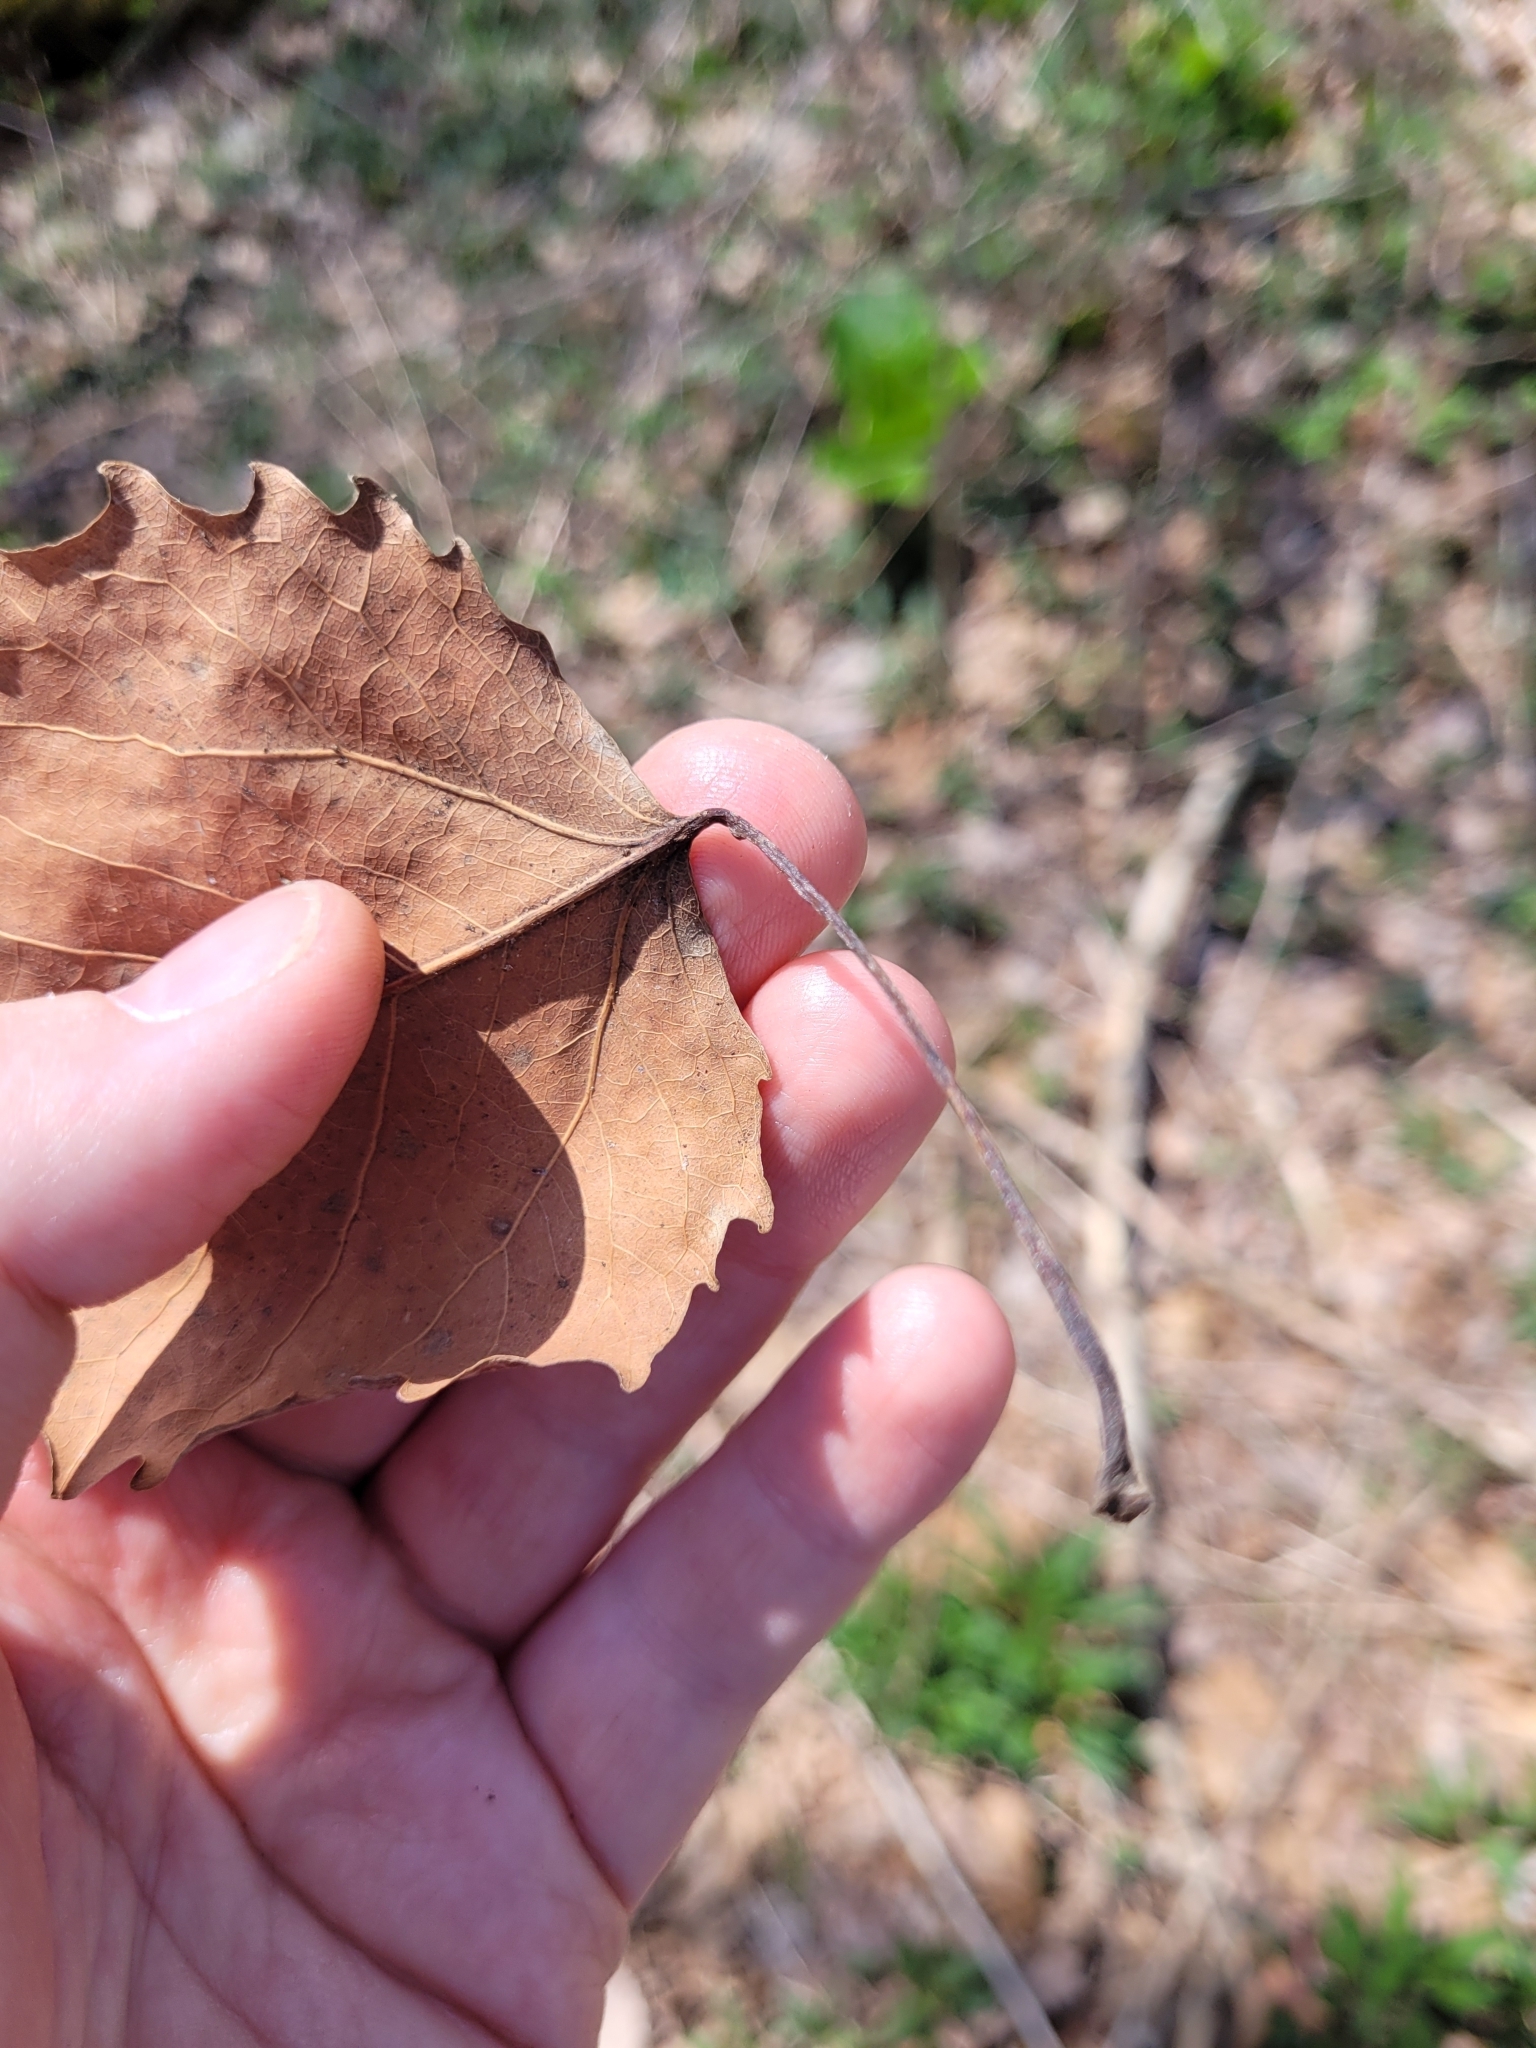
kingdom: Plantae
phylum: Tracheophyta
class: Magnoliopsida
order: Malpighiales
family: Salicaceae
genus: Populus
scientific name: Populus grandidentata
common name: Bigtooth aspen
